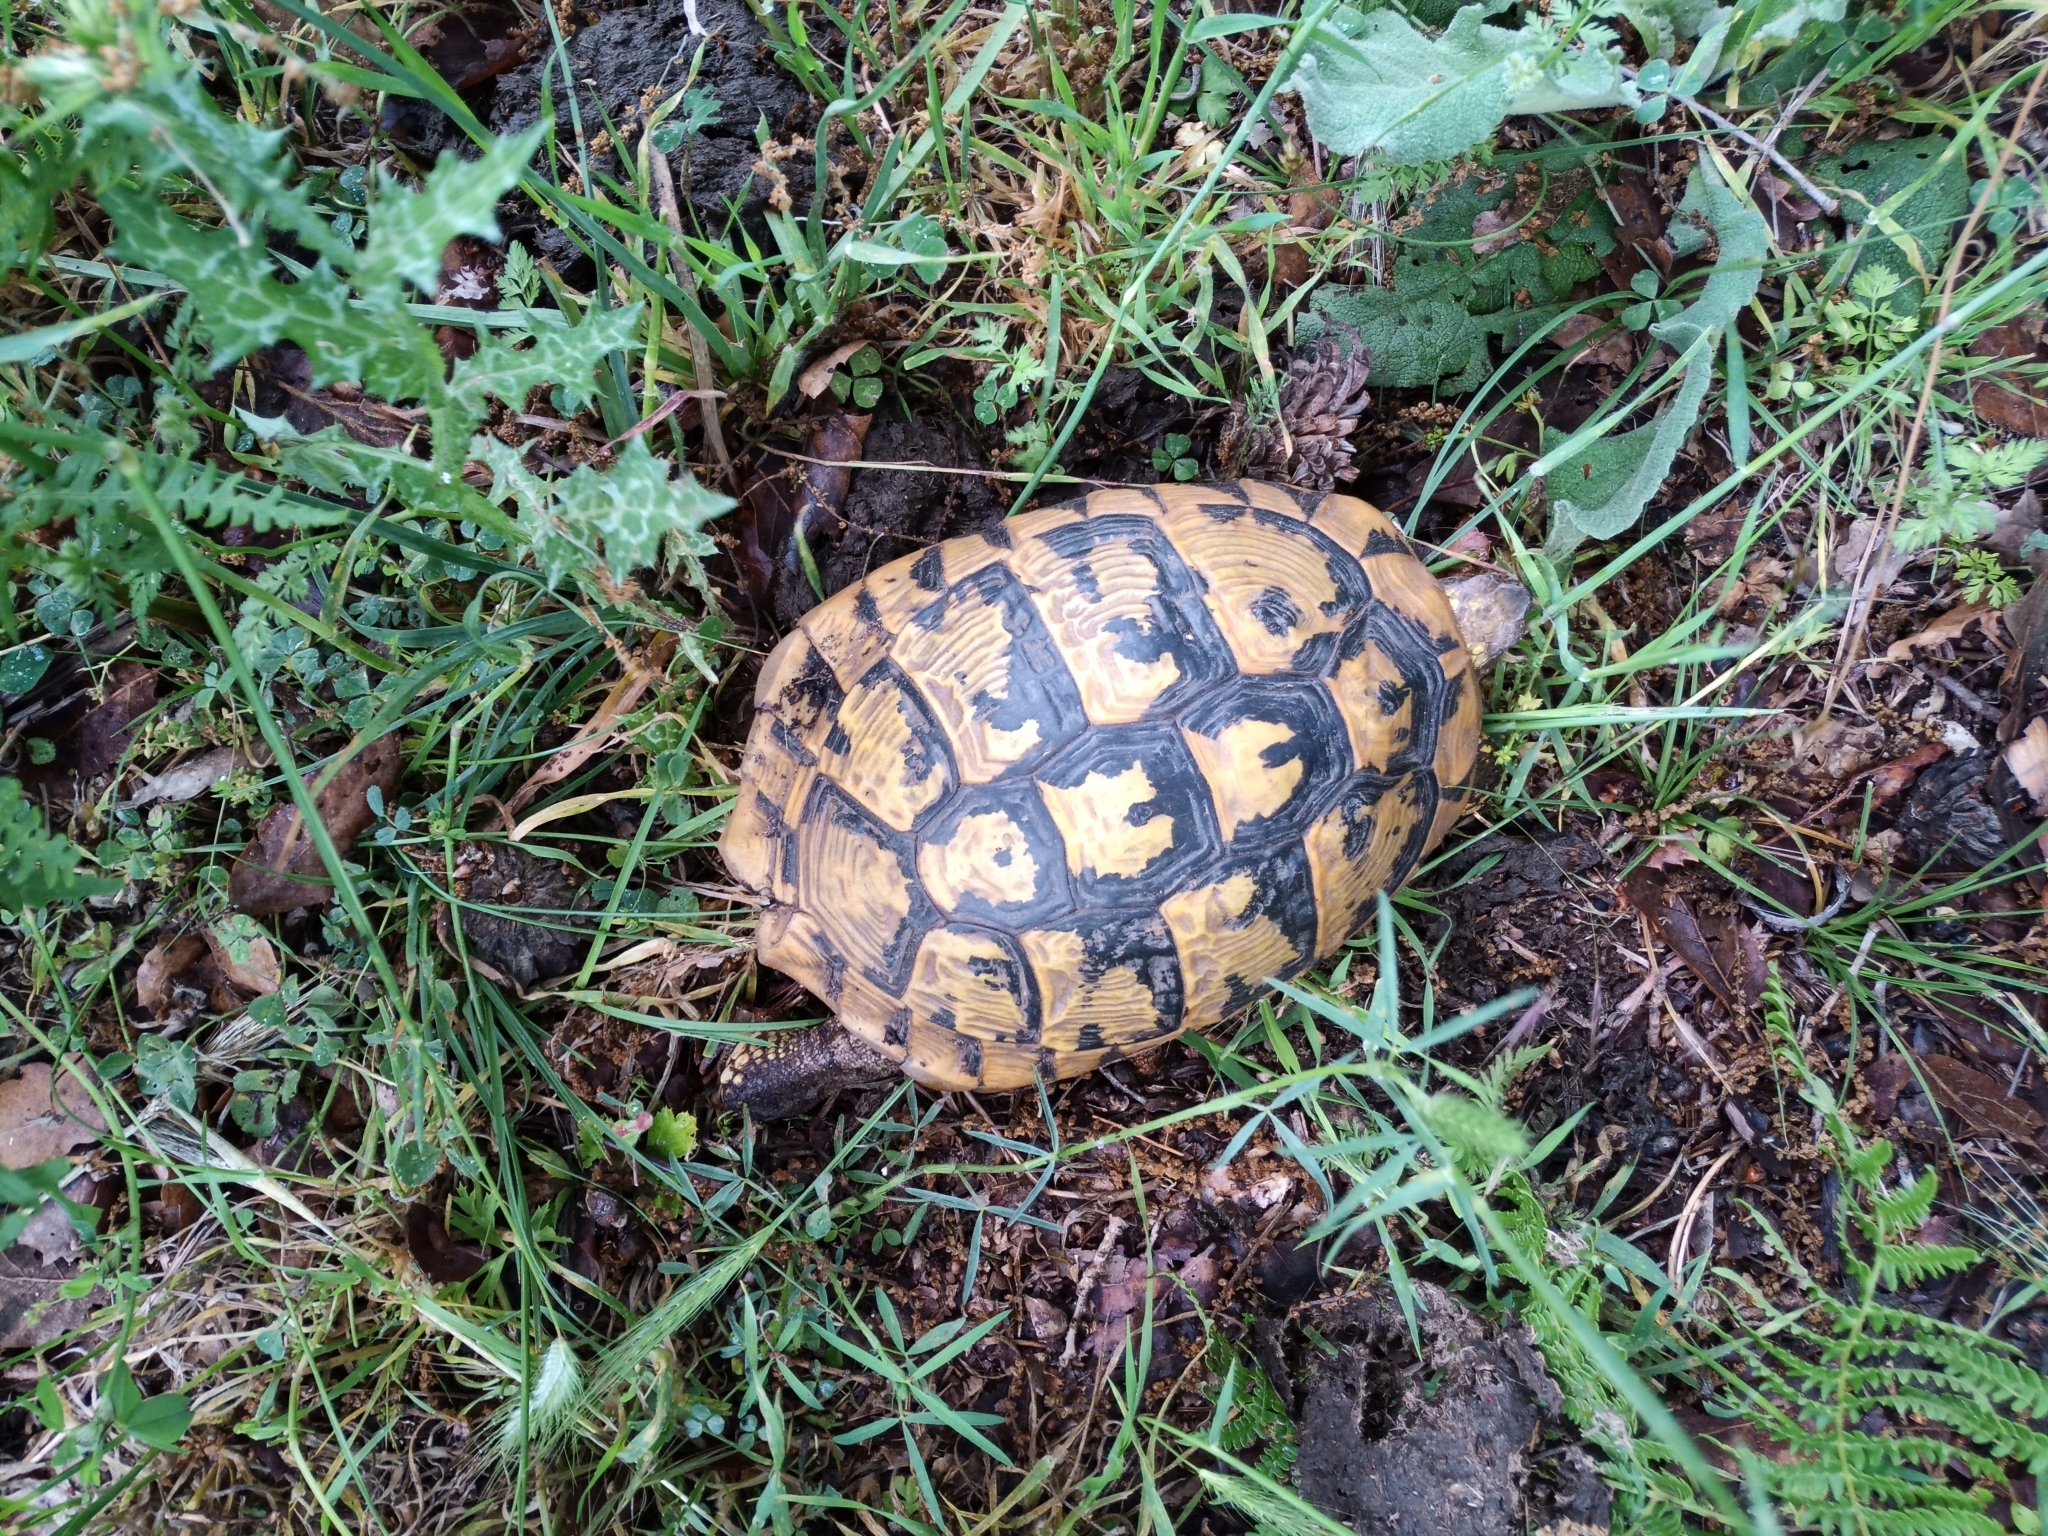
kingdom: Animalia
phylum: Chordata
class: Testudines
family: Testudinidae
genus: Testudo
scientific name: Testudo hermanni
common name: Hermann's tortoise
